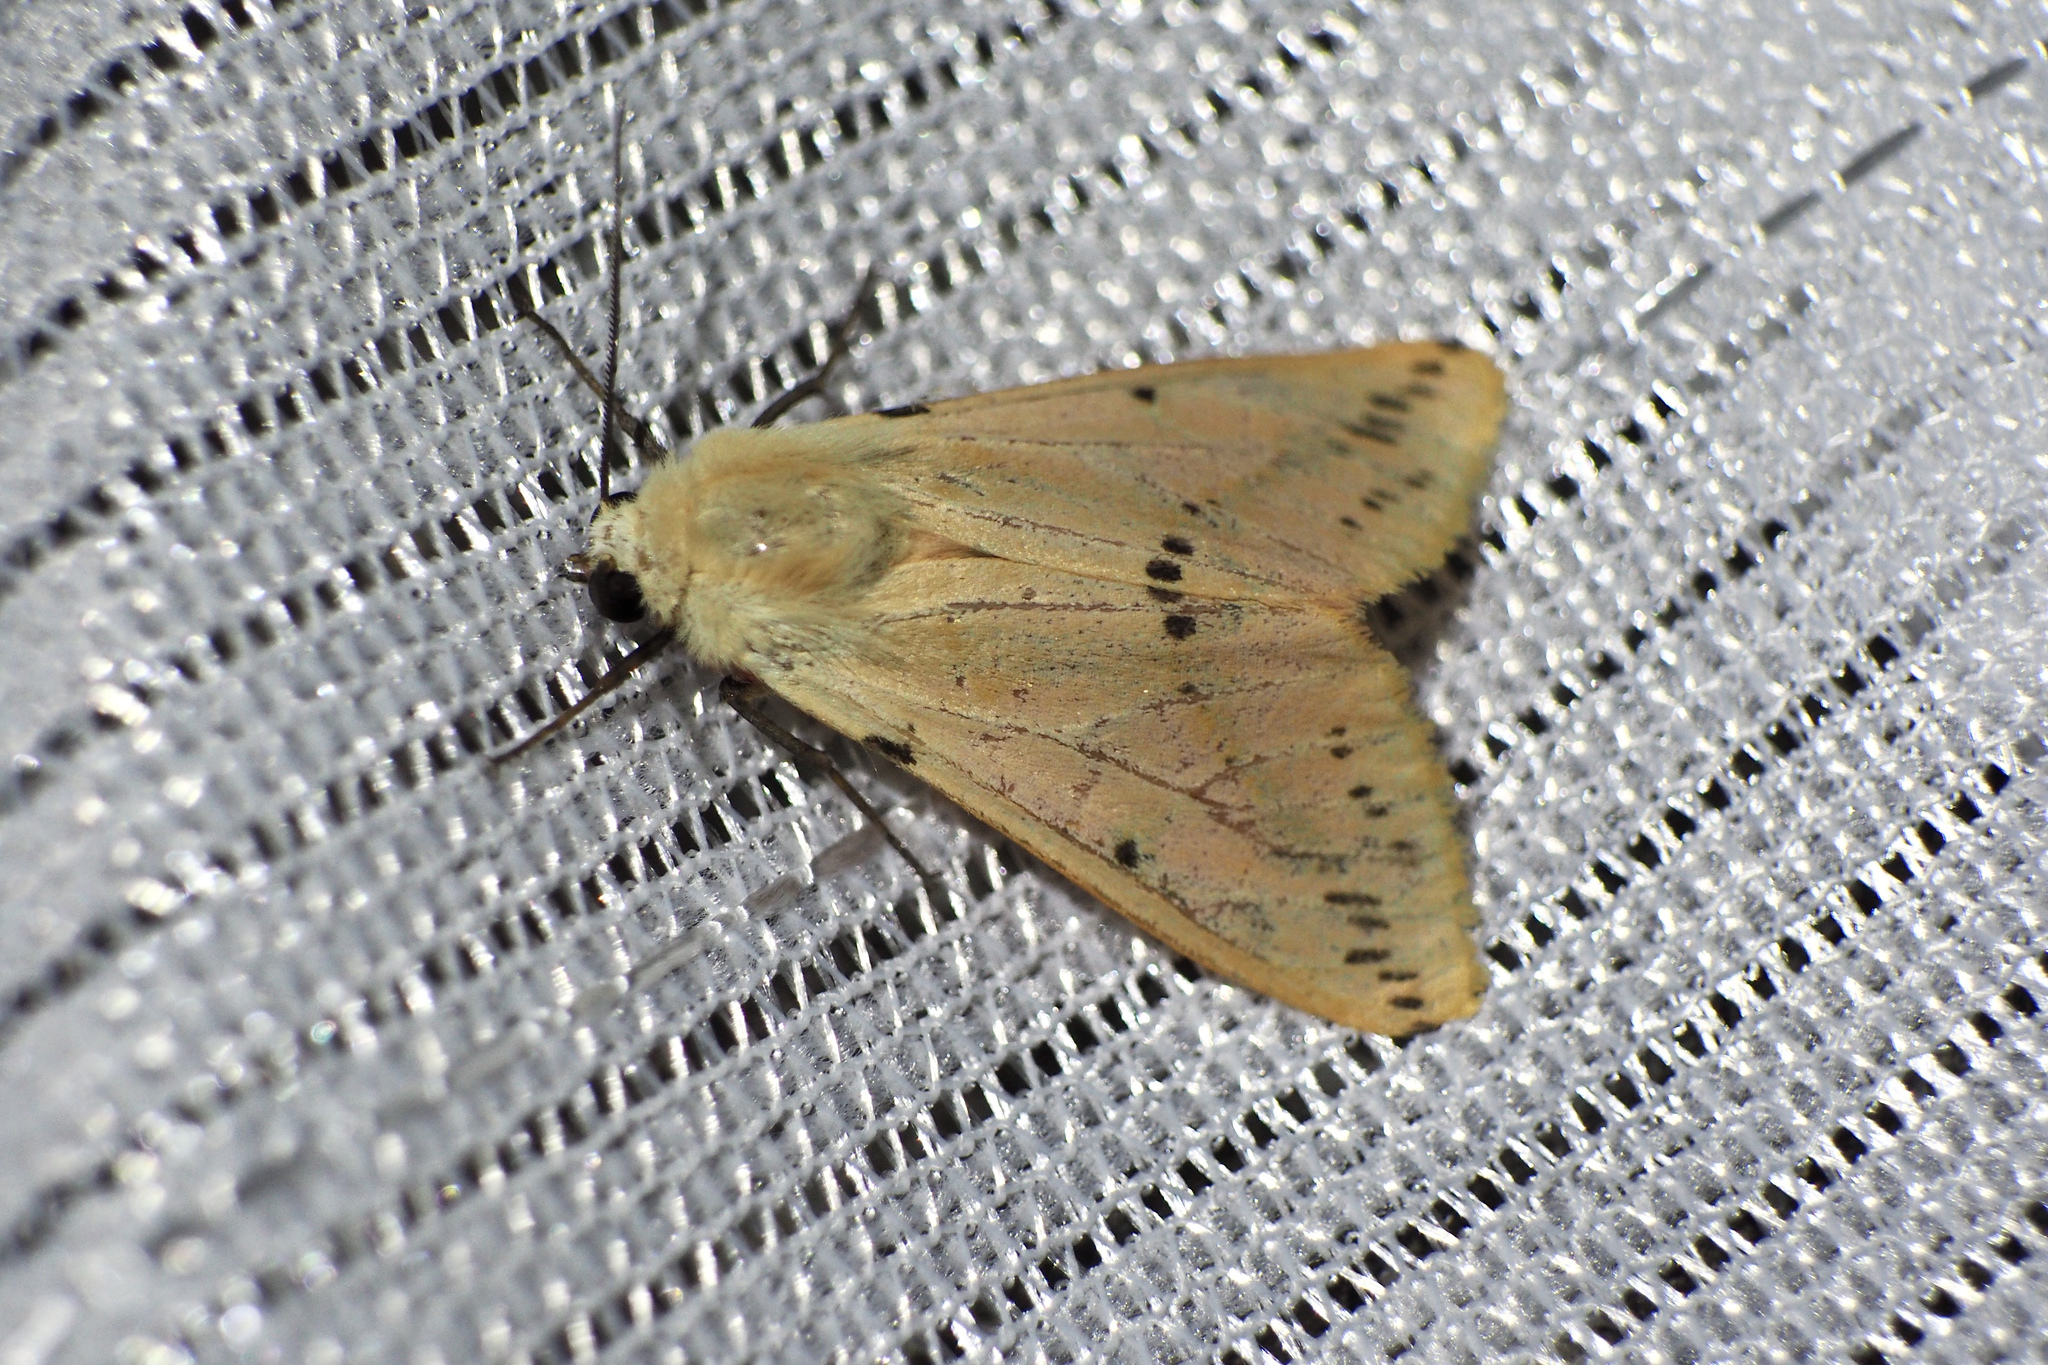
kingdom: Animalia
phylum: Arthropoda
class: Insecta
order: Lepidoptera
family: Erebidae
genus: Spilarctia
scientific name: Spilarctia seriatopunctata
